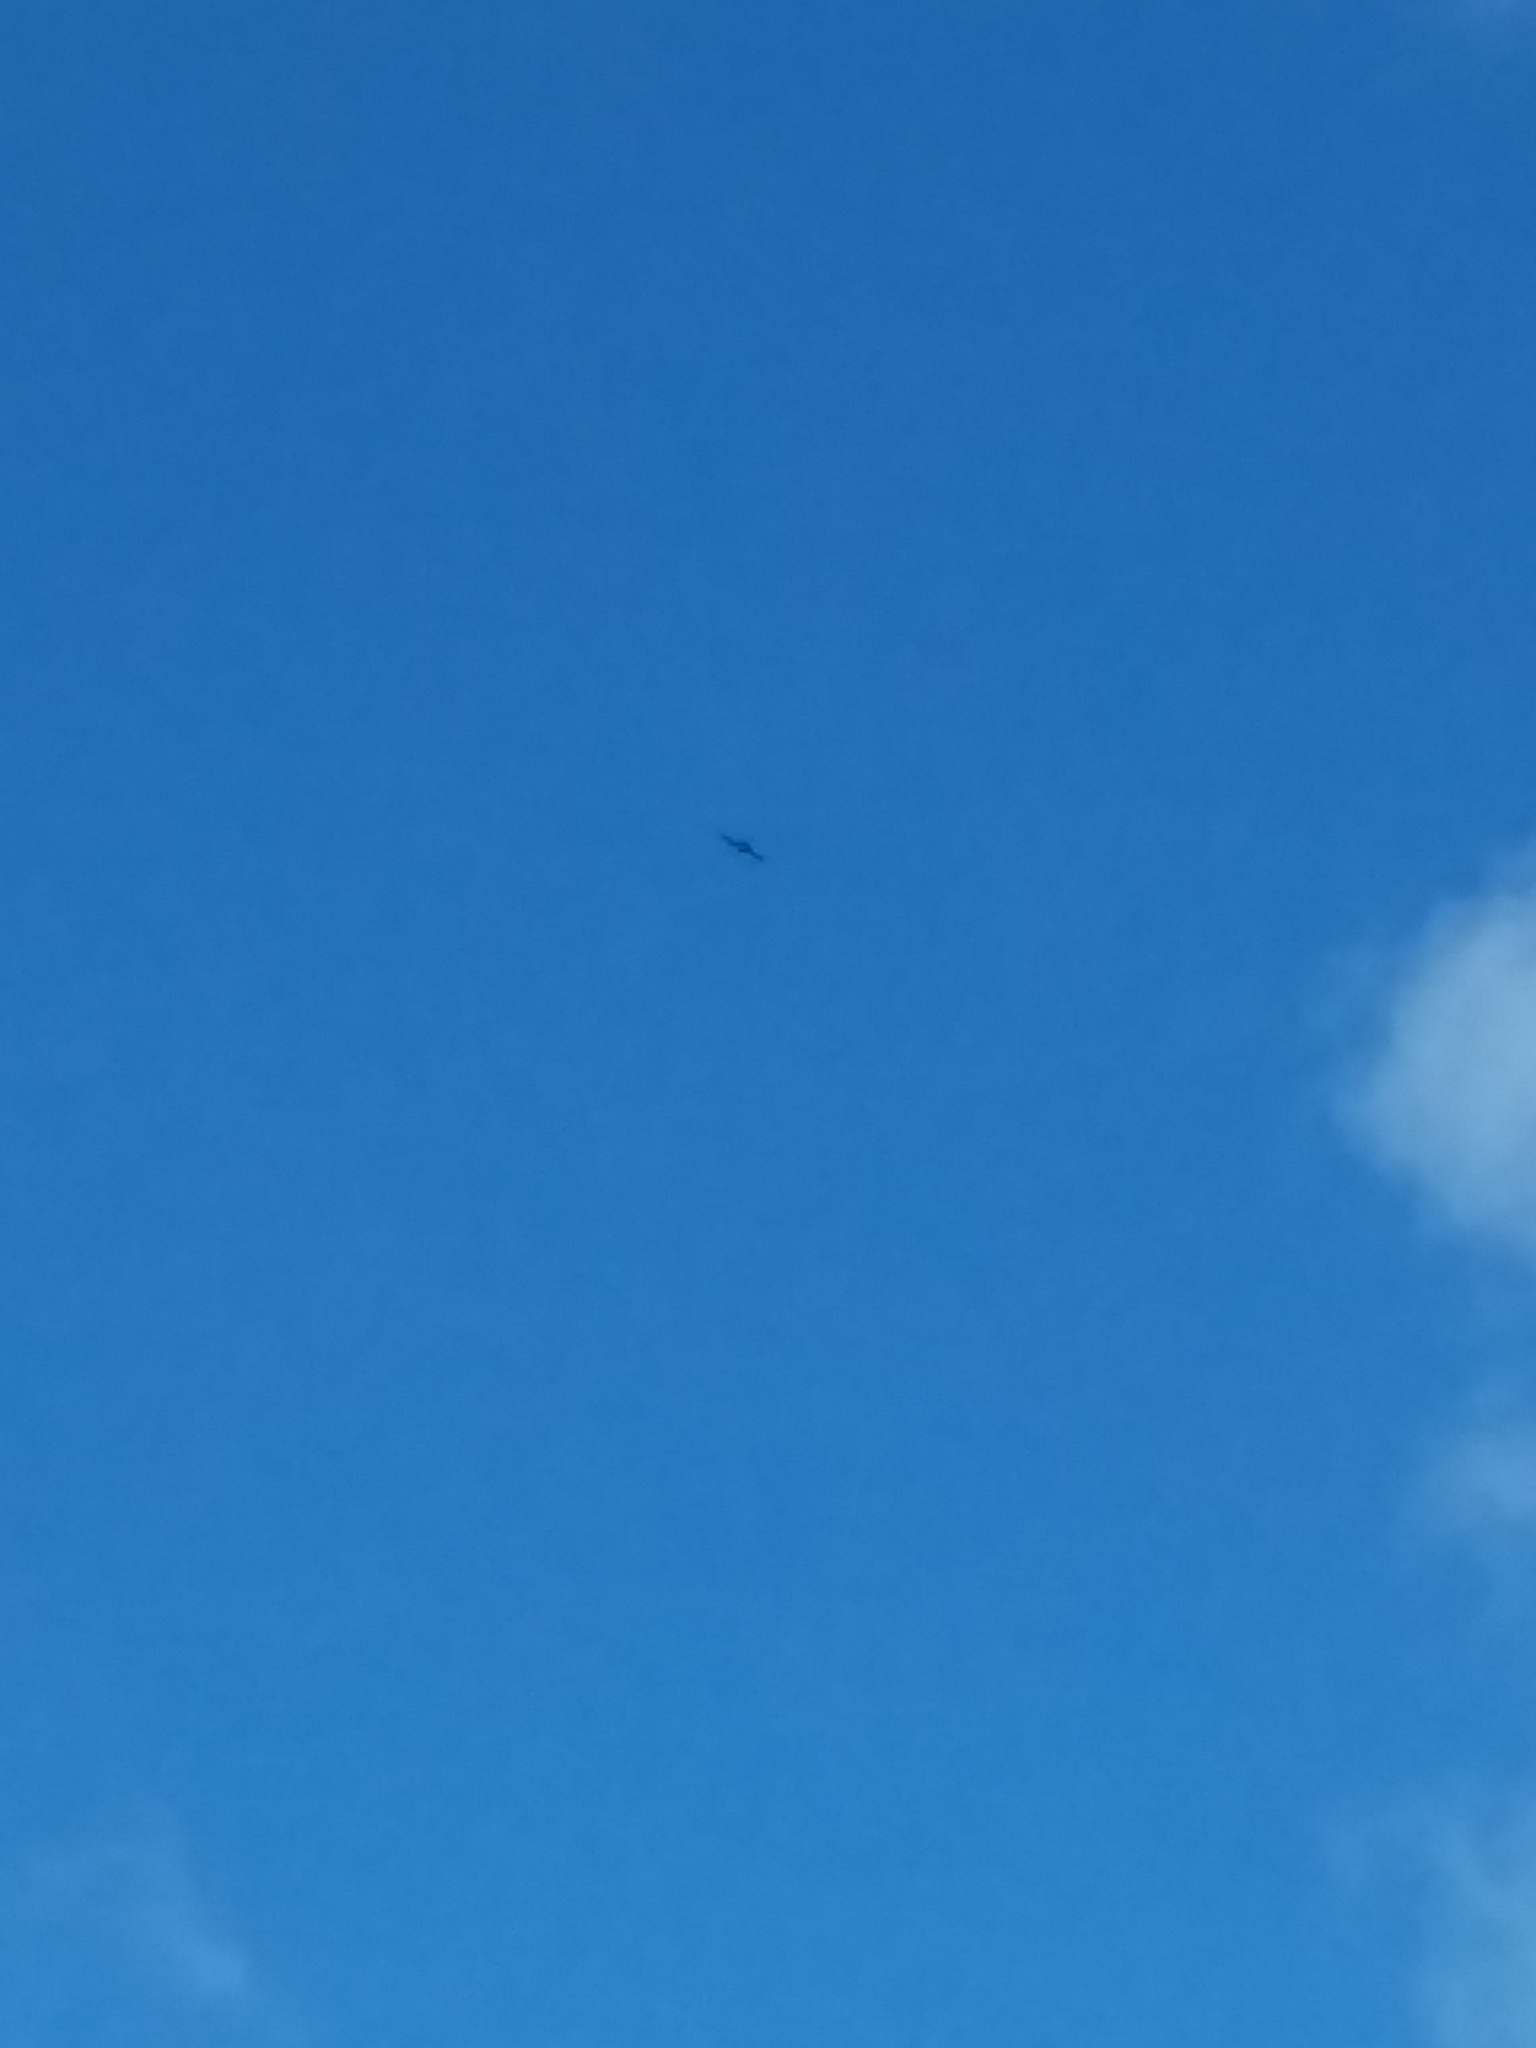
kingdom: Animalia
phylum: Chordata
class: Aves
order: Accipitriformes
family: Accipitridae
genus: Ictinia
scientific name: Ictinia mississippiensis
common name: Mississippi kite
